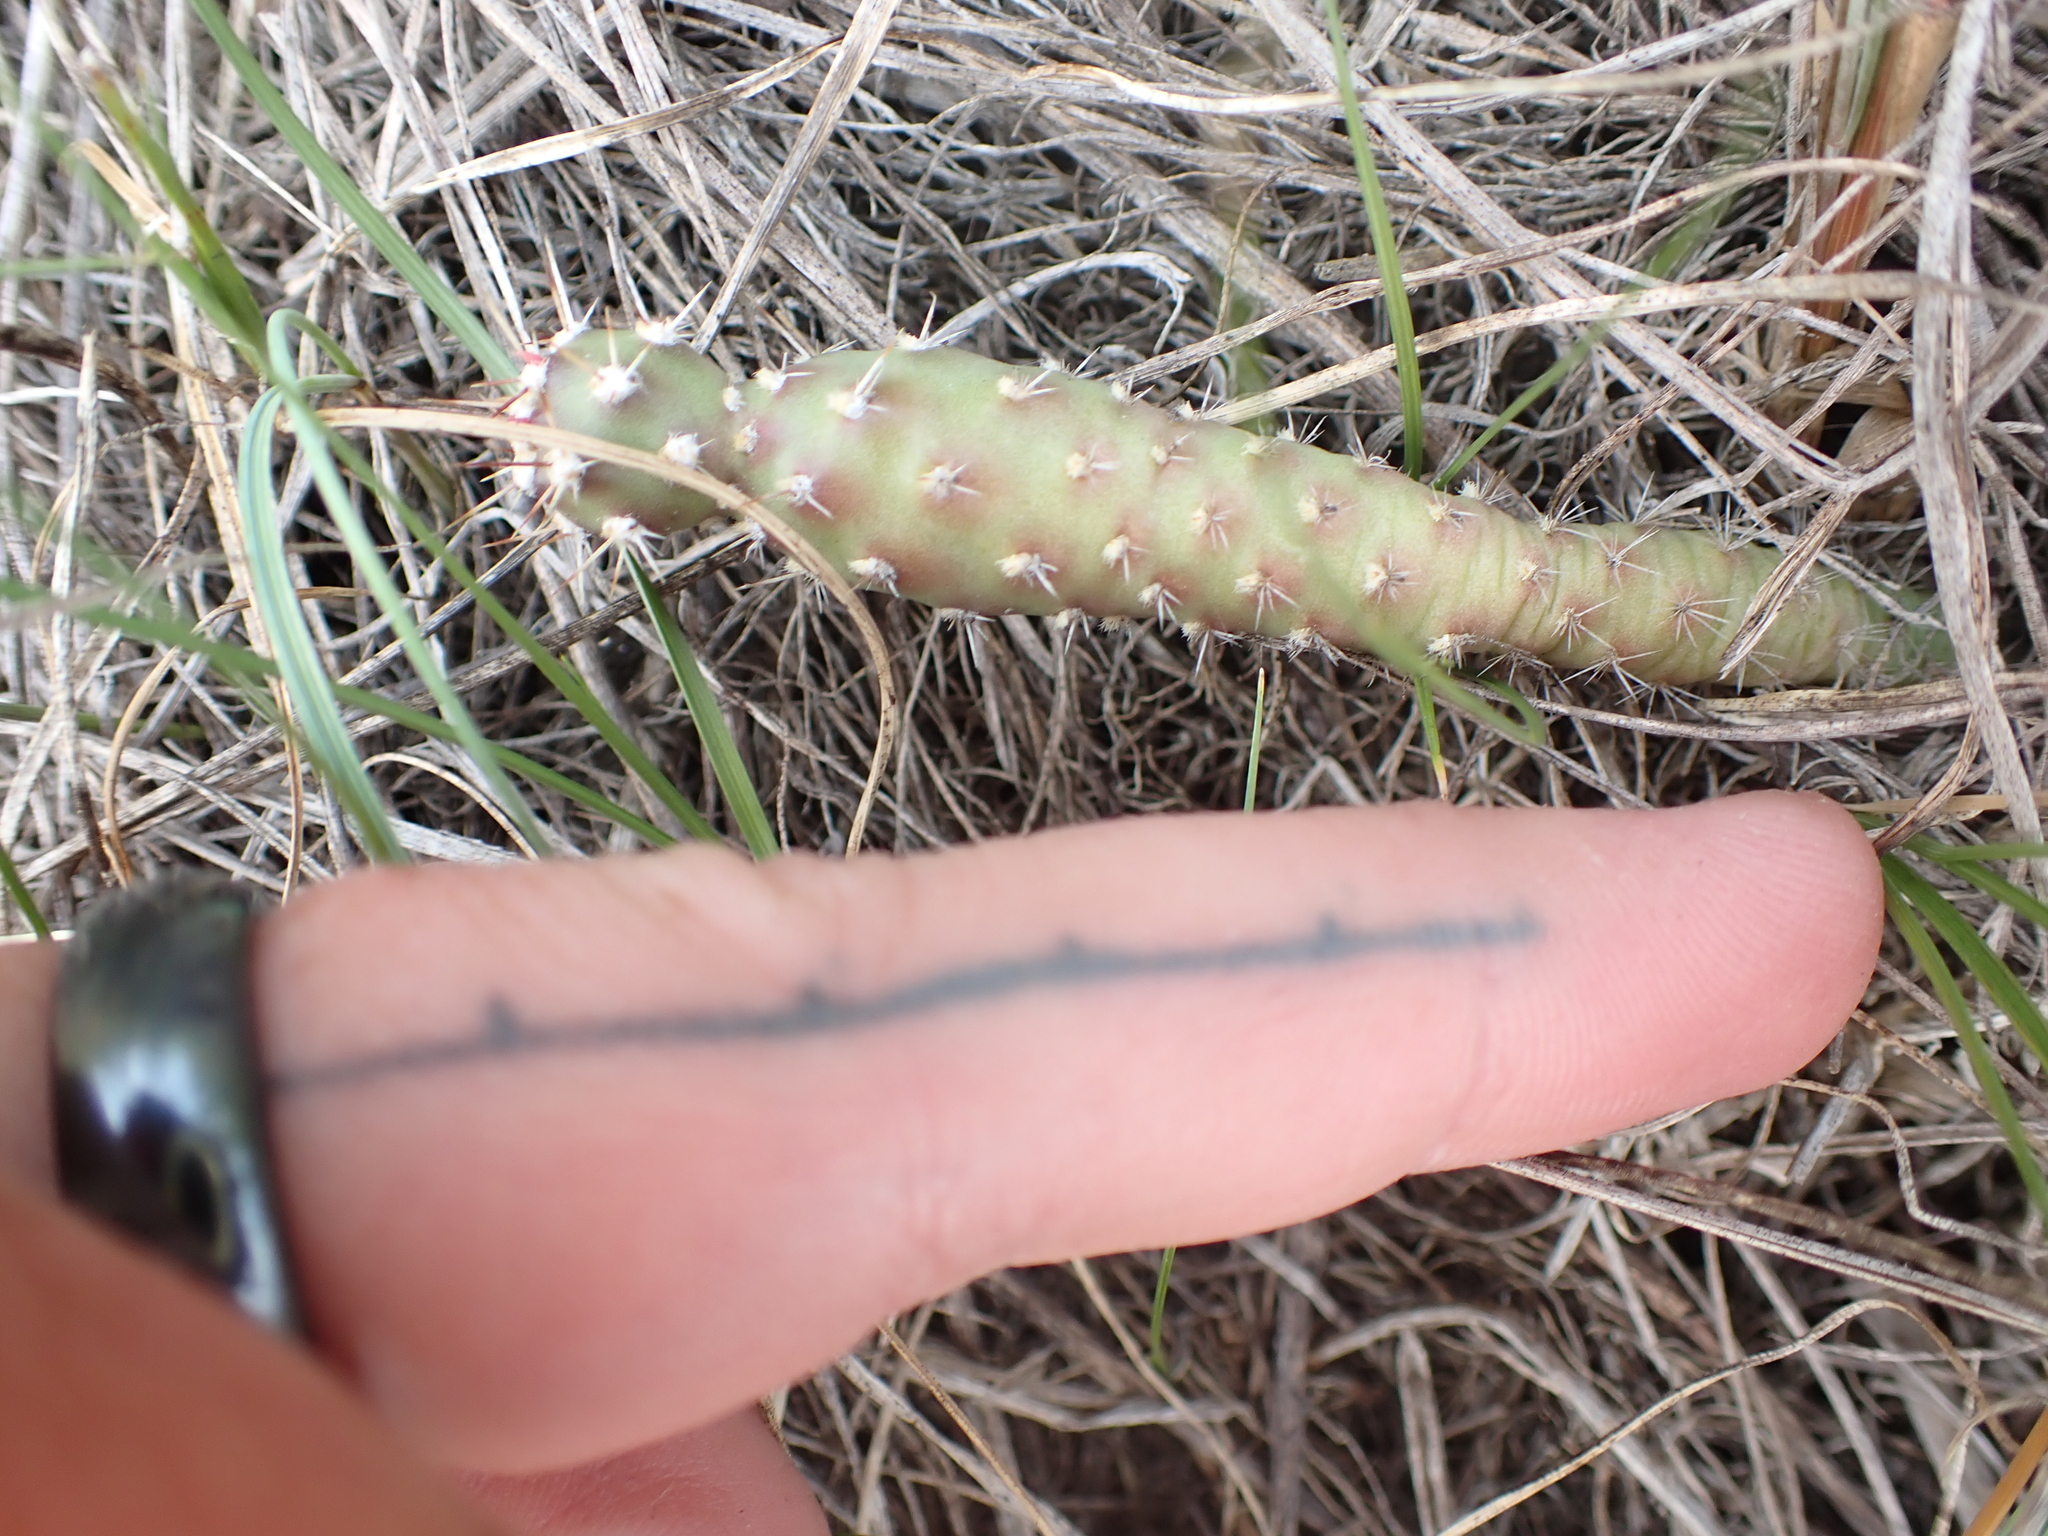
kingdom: Plantae
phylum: Tracheophyta
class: Magnoliopsida
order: Caryophyllales
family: Cactaceae
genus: Opuntia
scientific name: Opuntia fragilis
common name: Brittle cactus
